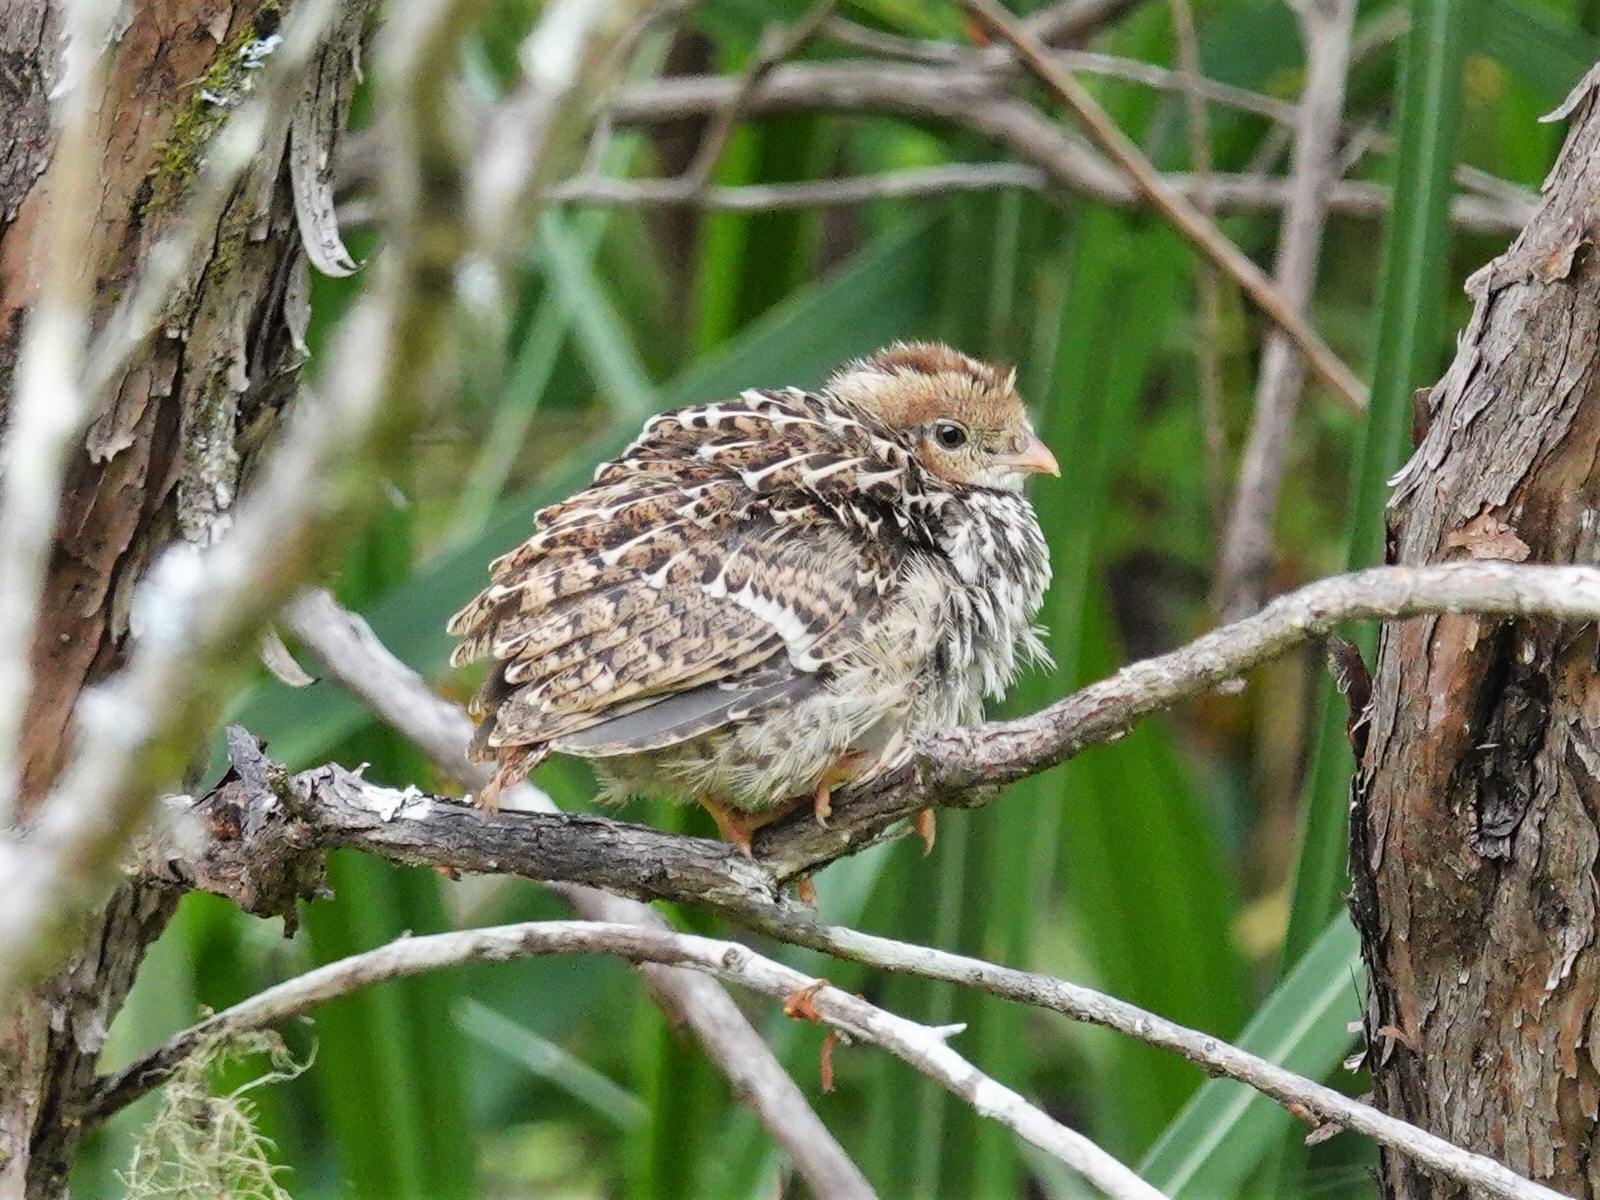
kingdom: Animalia
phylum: Chordata
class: Aves
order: Galliformes
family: Odontophoridae
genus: Callipepla
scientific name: Callipepla californica
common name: California quail
